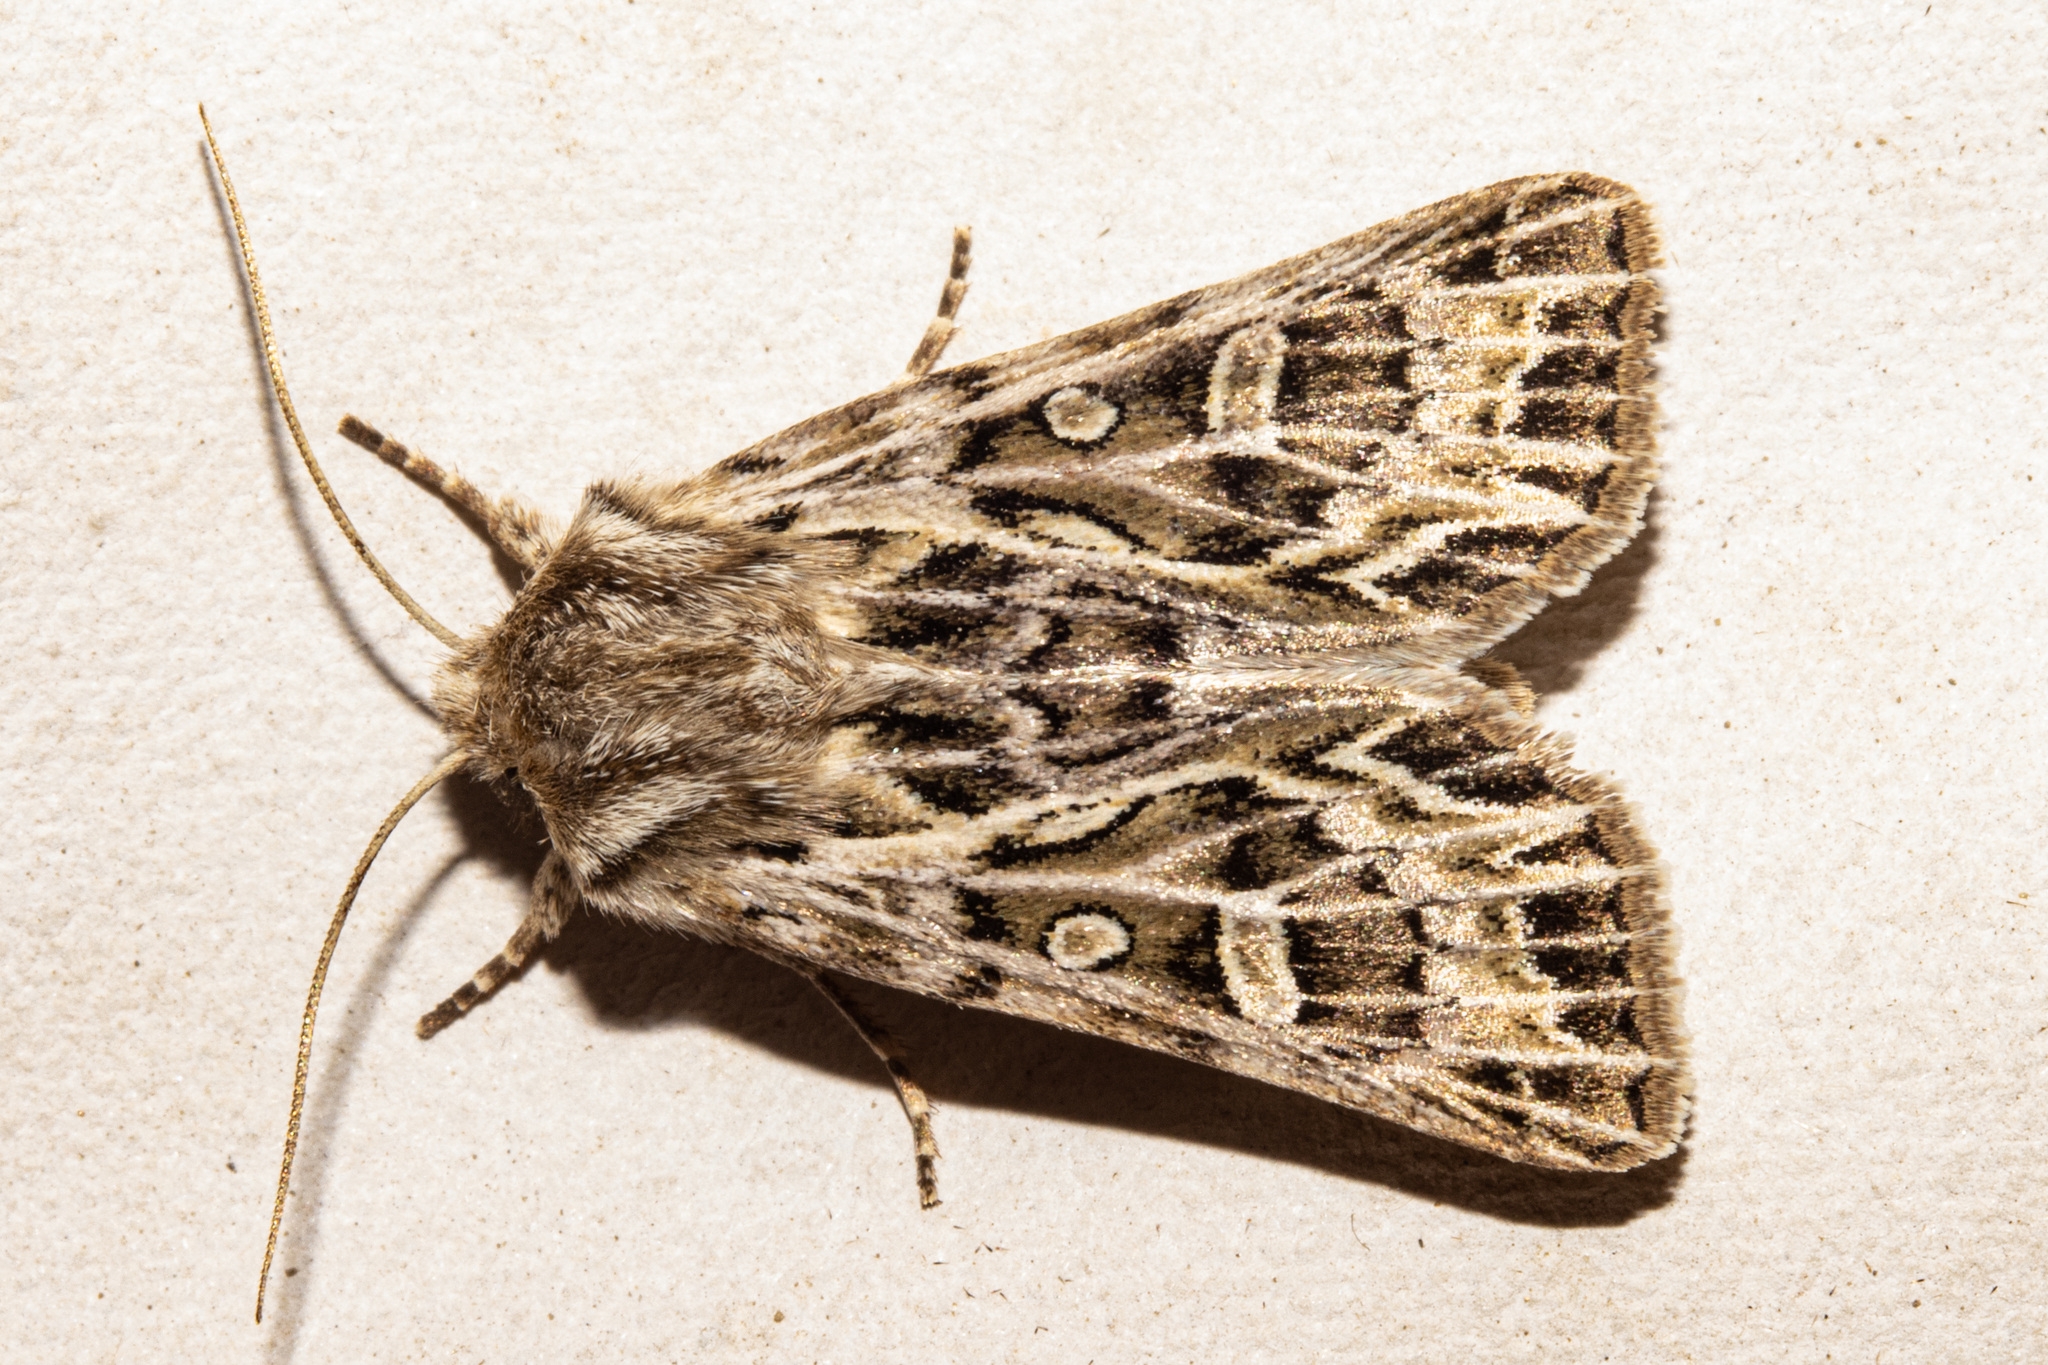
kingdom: Animalia
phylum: Arthropoda
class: Insecta
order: Lepidoptera
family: Noctuidae
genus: Ichneutica
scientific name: Ichneutica
